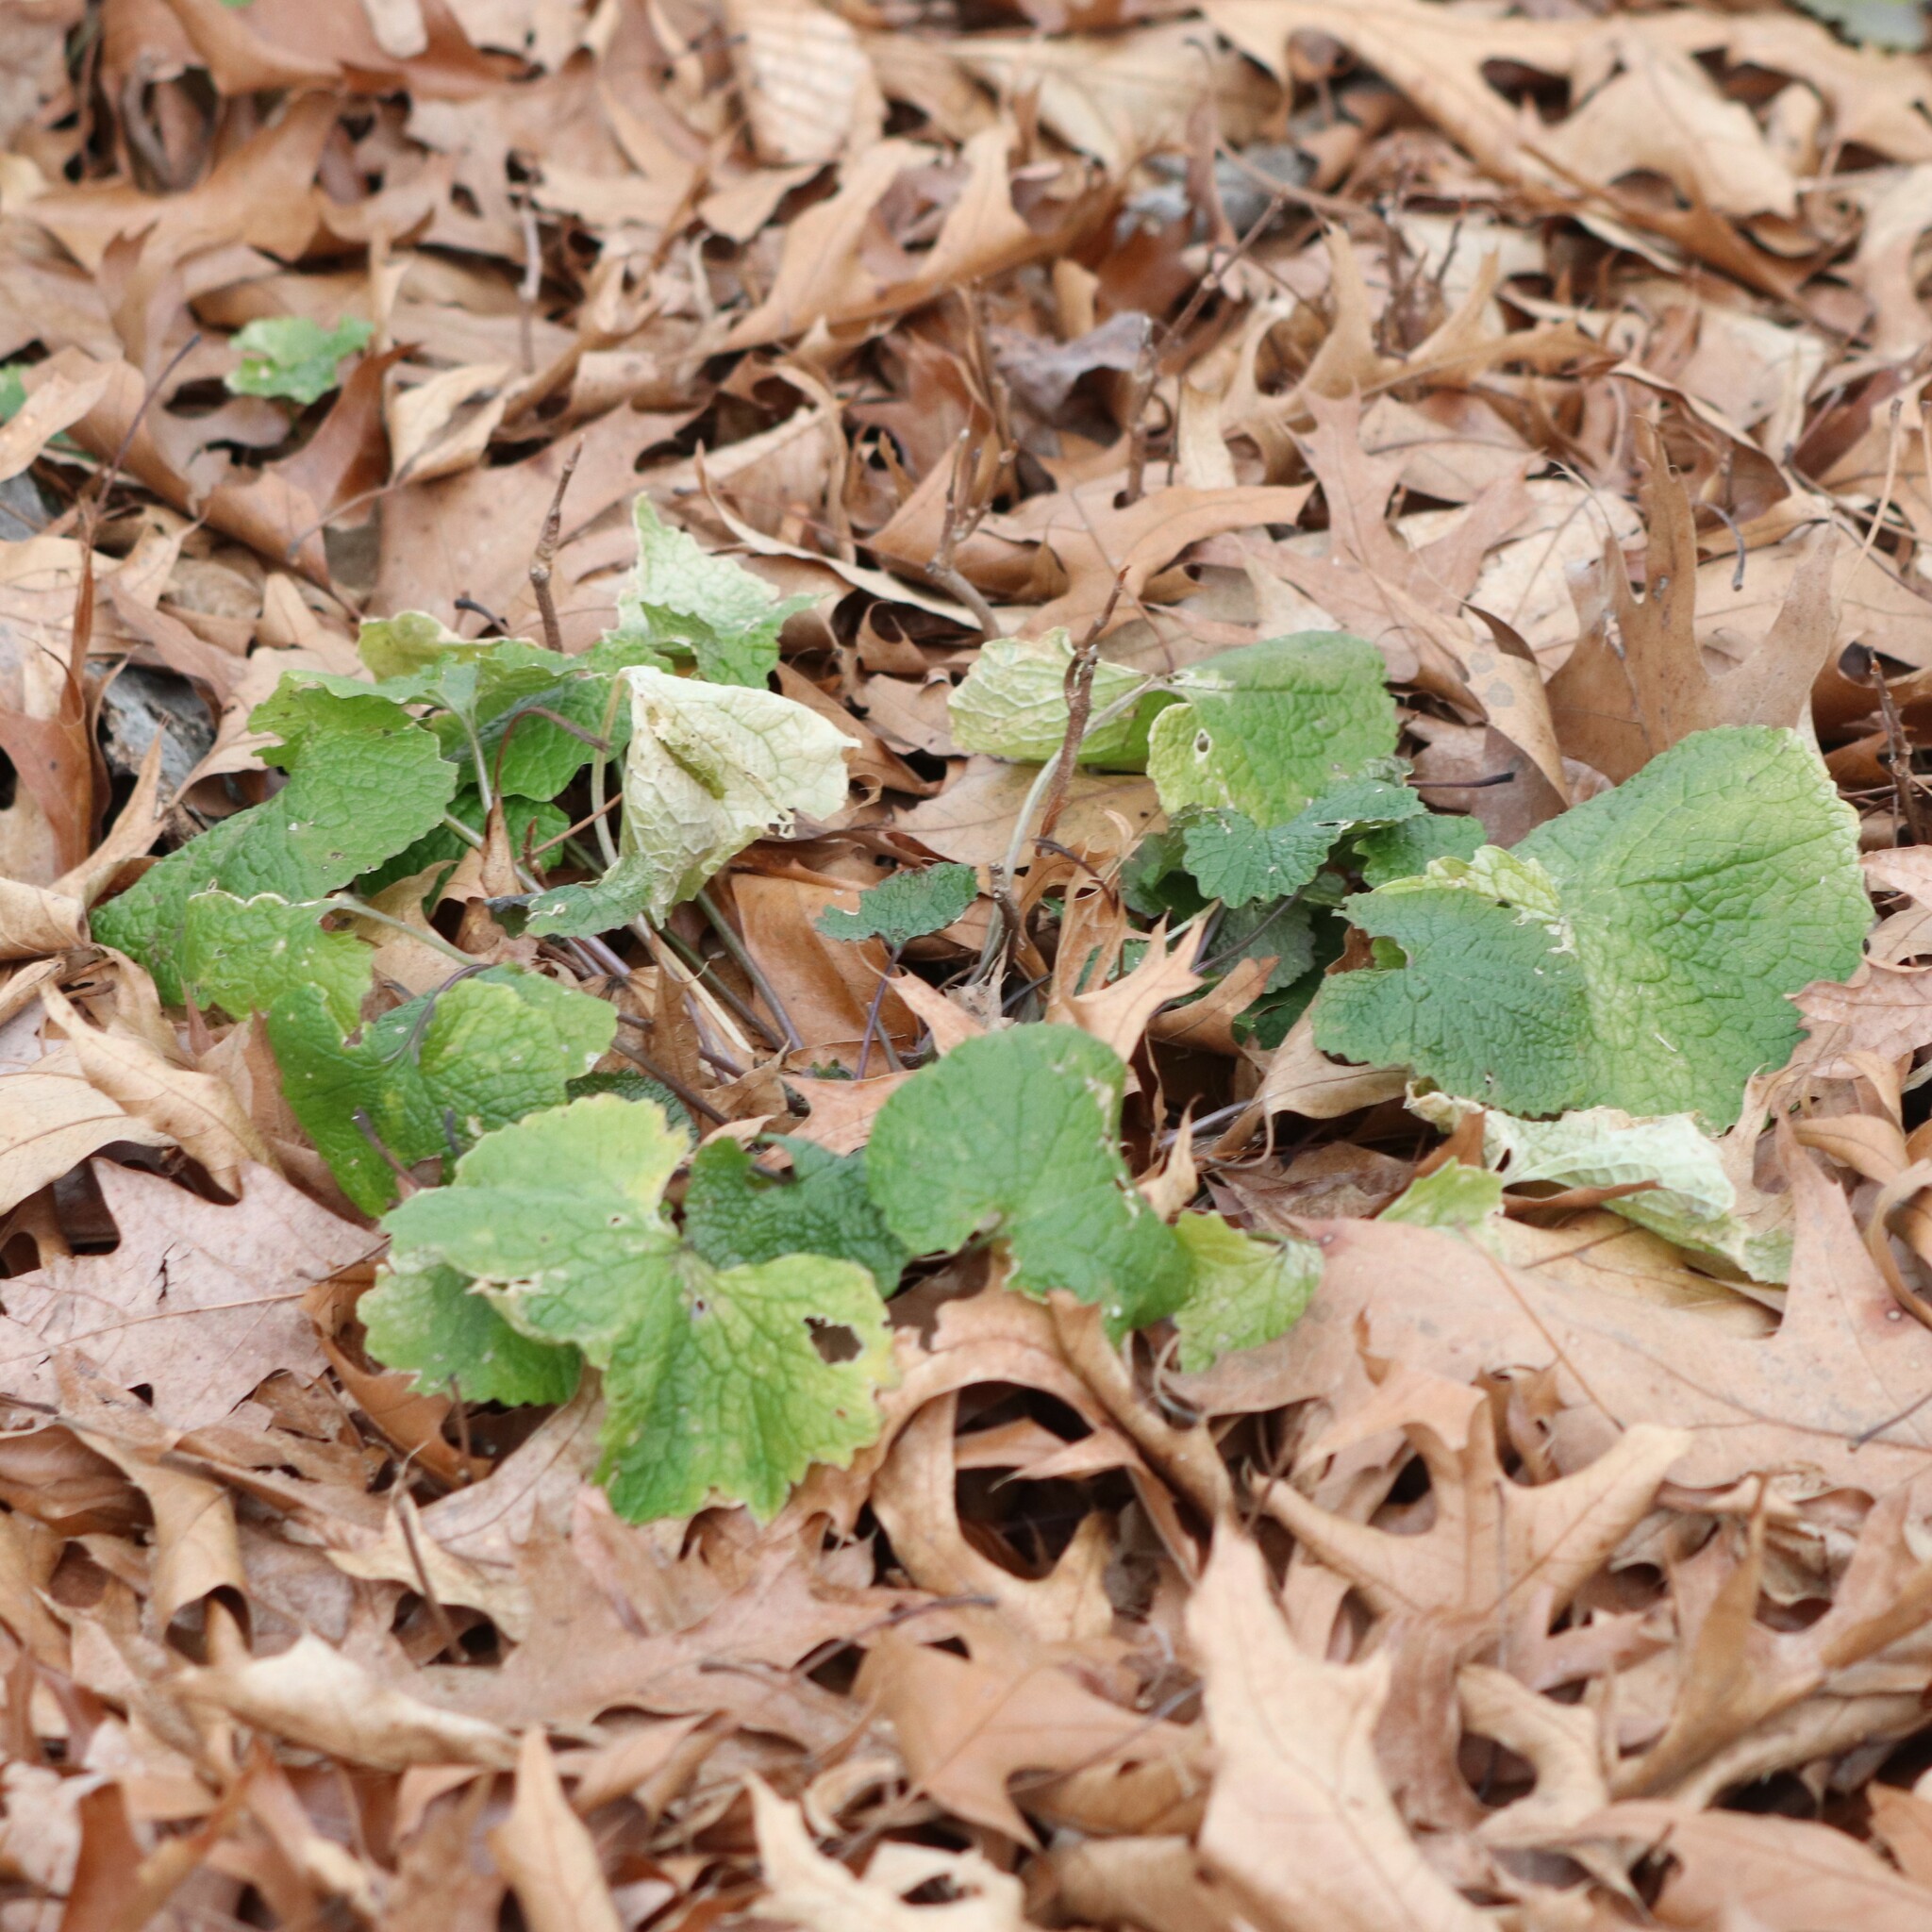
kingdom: Plantae
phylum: Tracheophyta
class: Magnoliopsida
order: Brassicales
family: Brassicaceae
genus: Alliaria
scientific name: Alliaria petiolata
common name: Garlic mustard
